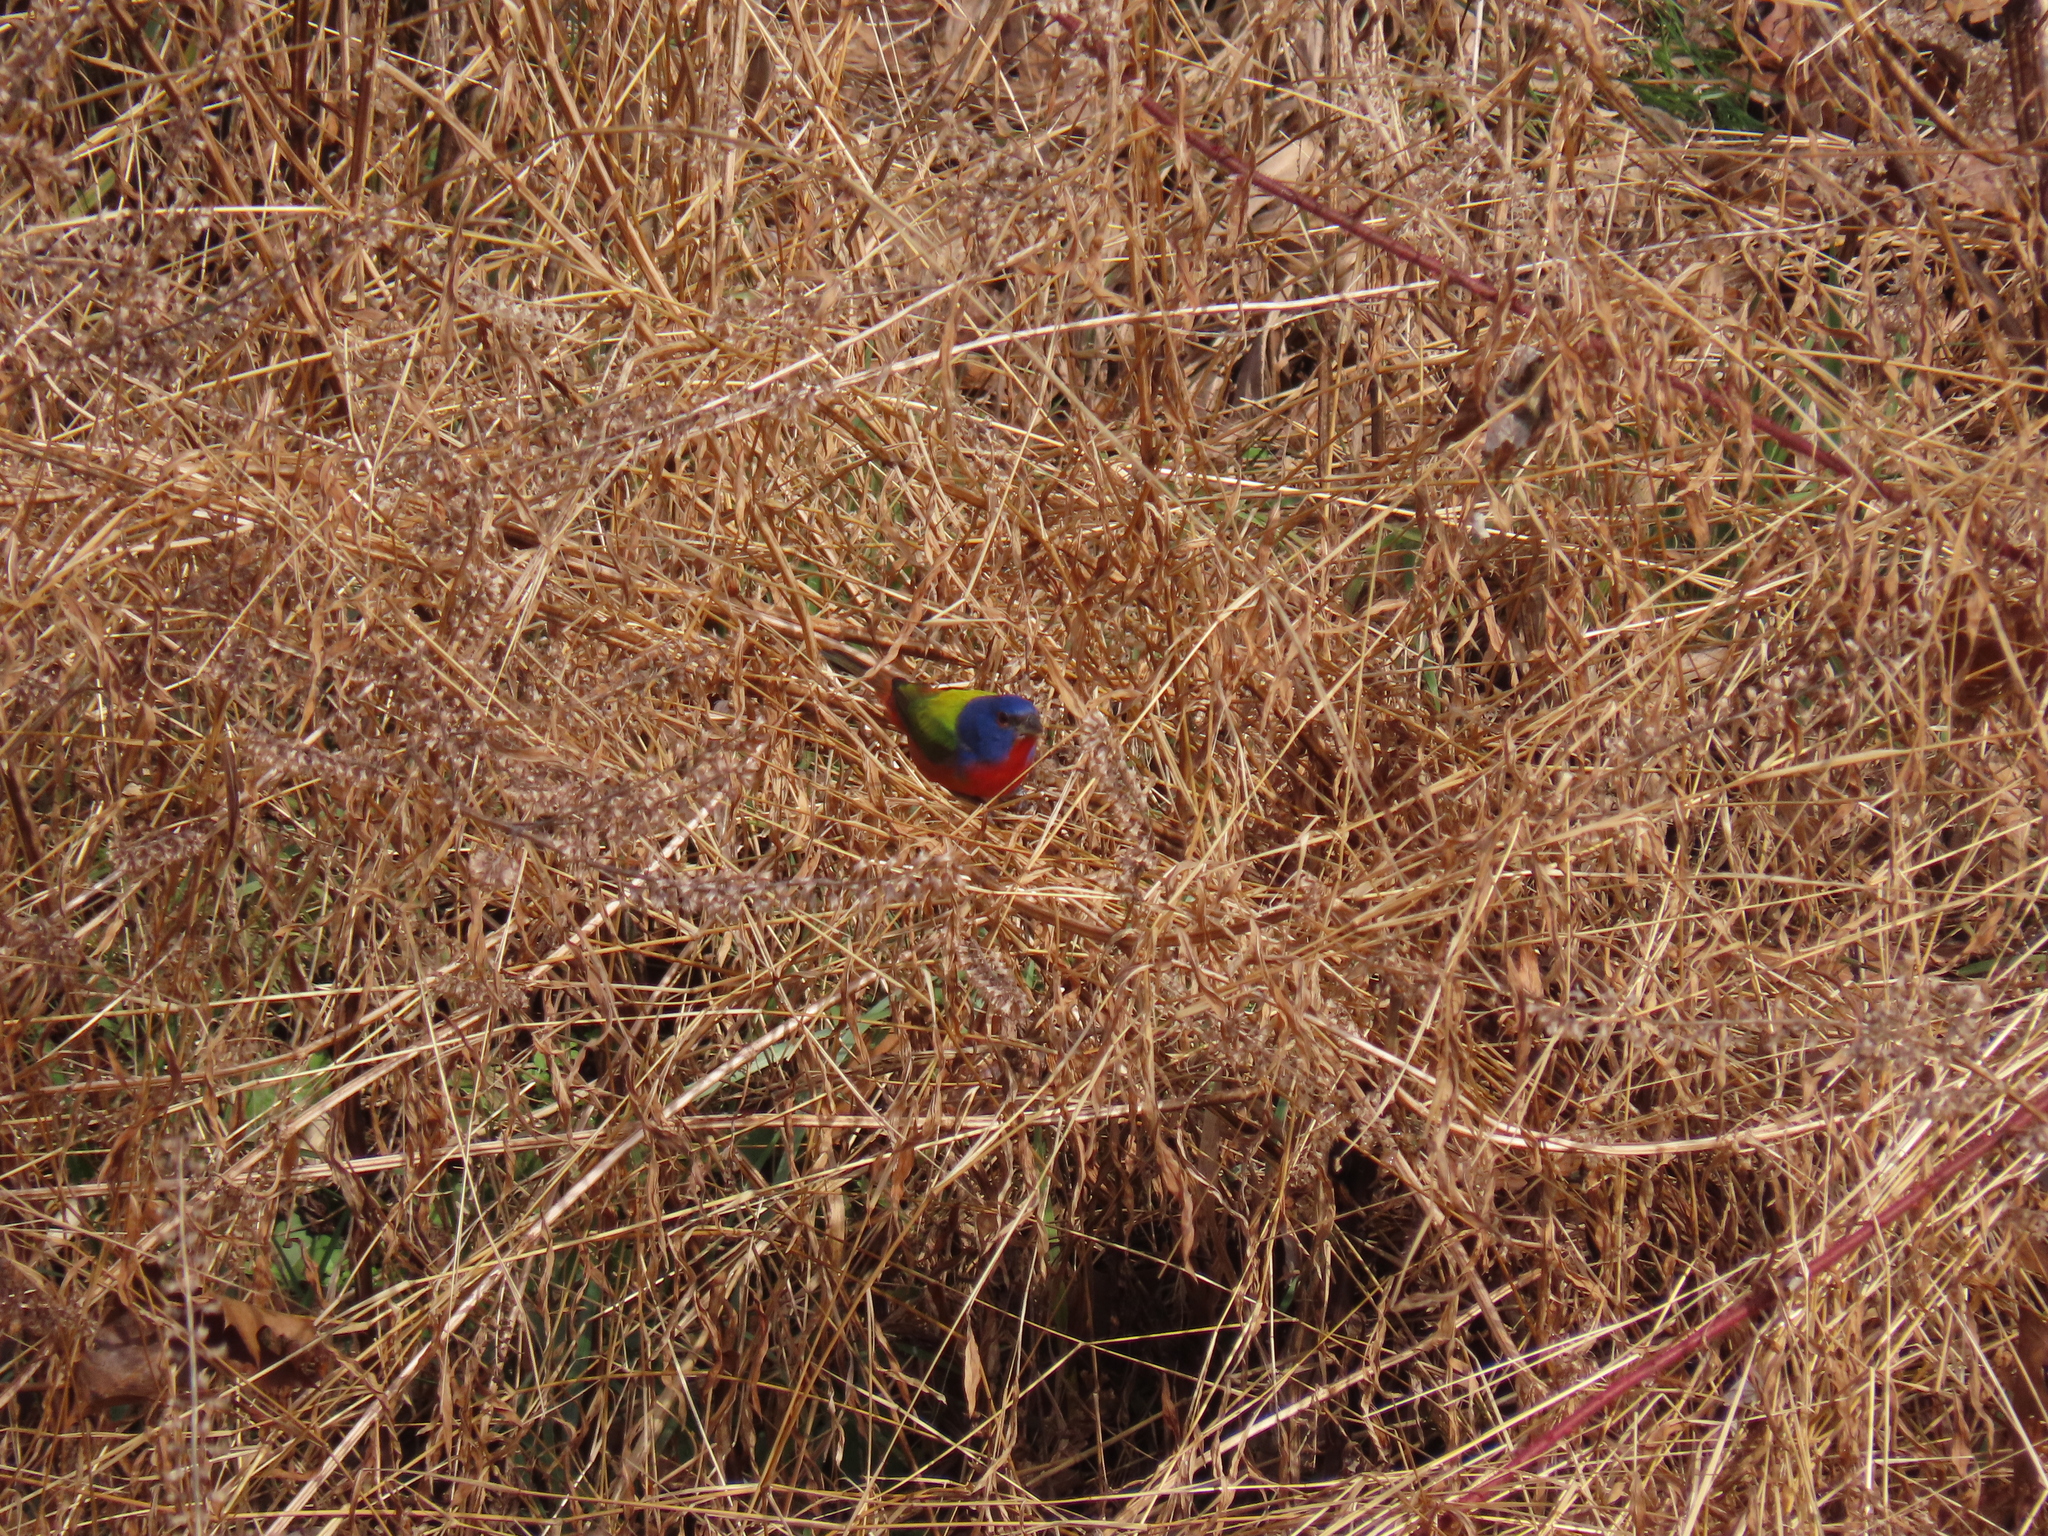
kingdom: Animalia
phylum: Chordata
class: Aves
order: Passeriformes
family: Cardinalidae
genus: Passerina
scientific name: Passerina ciris
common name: Painted bunting
